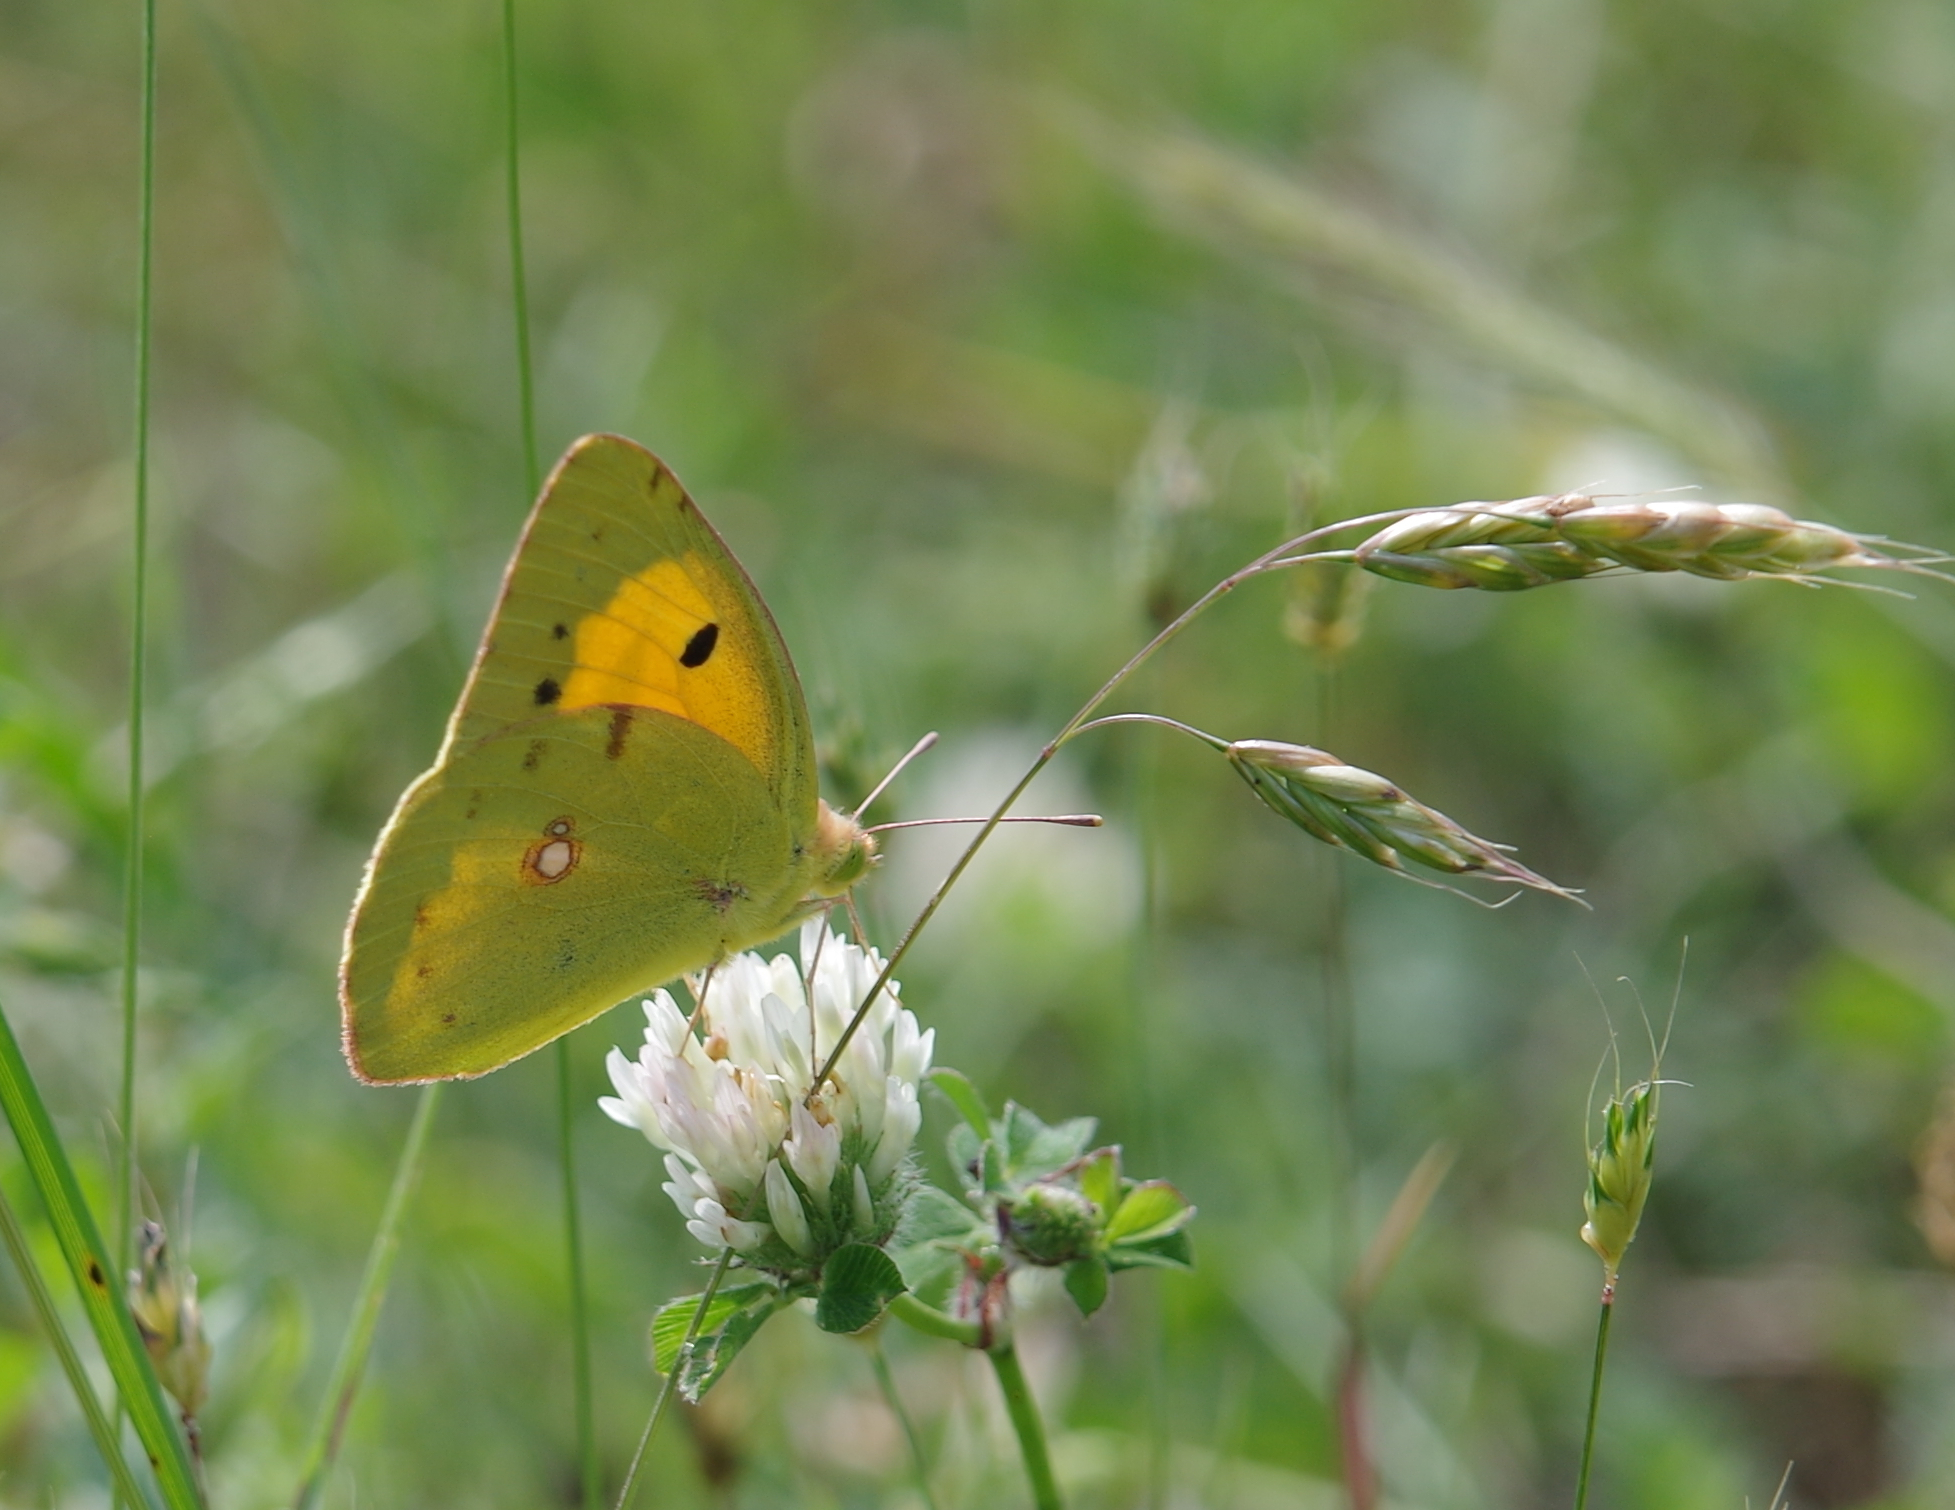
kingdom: Animalia
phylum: Arthropoda
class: Insecta
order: Lepidoptera
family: Pieridae
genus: Colias
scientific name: Colias croceus
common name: Clouded yellow
